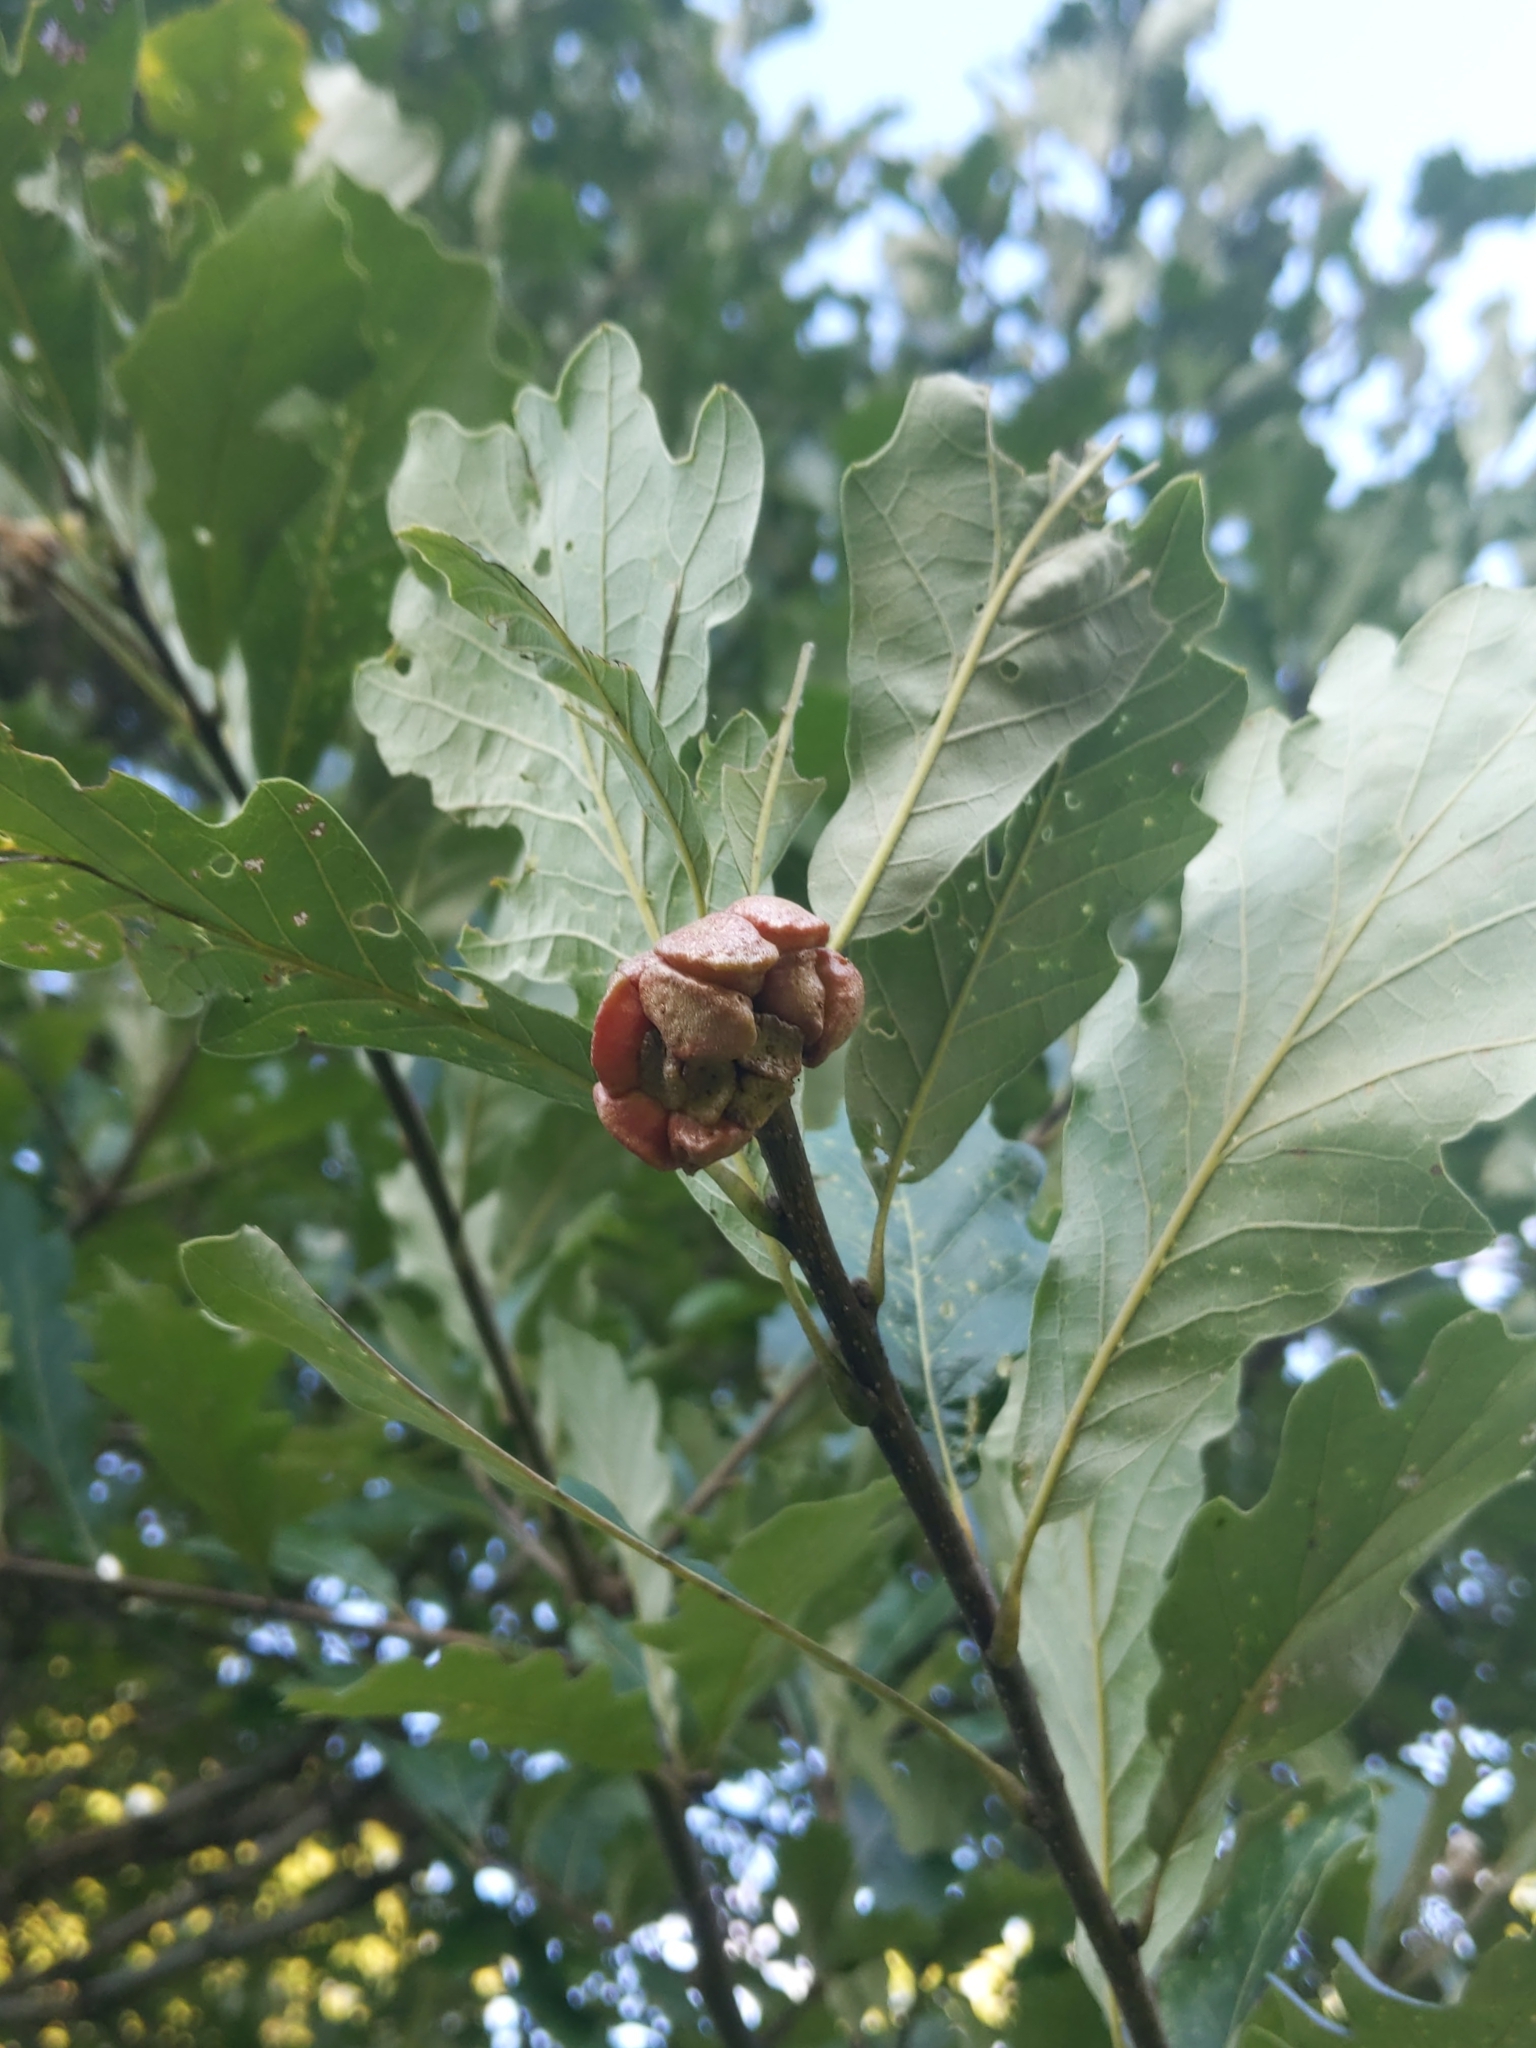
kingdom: Animalia
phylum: Arthropoda
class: Insecta
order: Hymenoptera
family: Cynipidae
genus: Andricus
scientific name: Andricus
